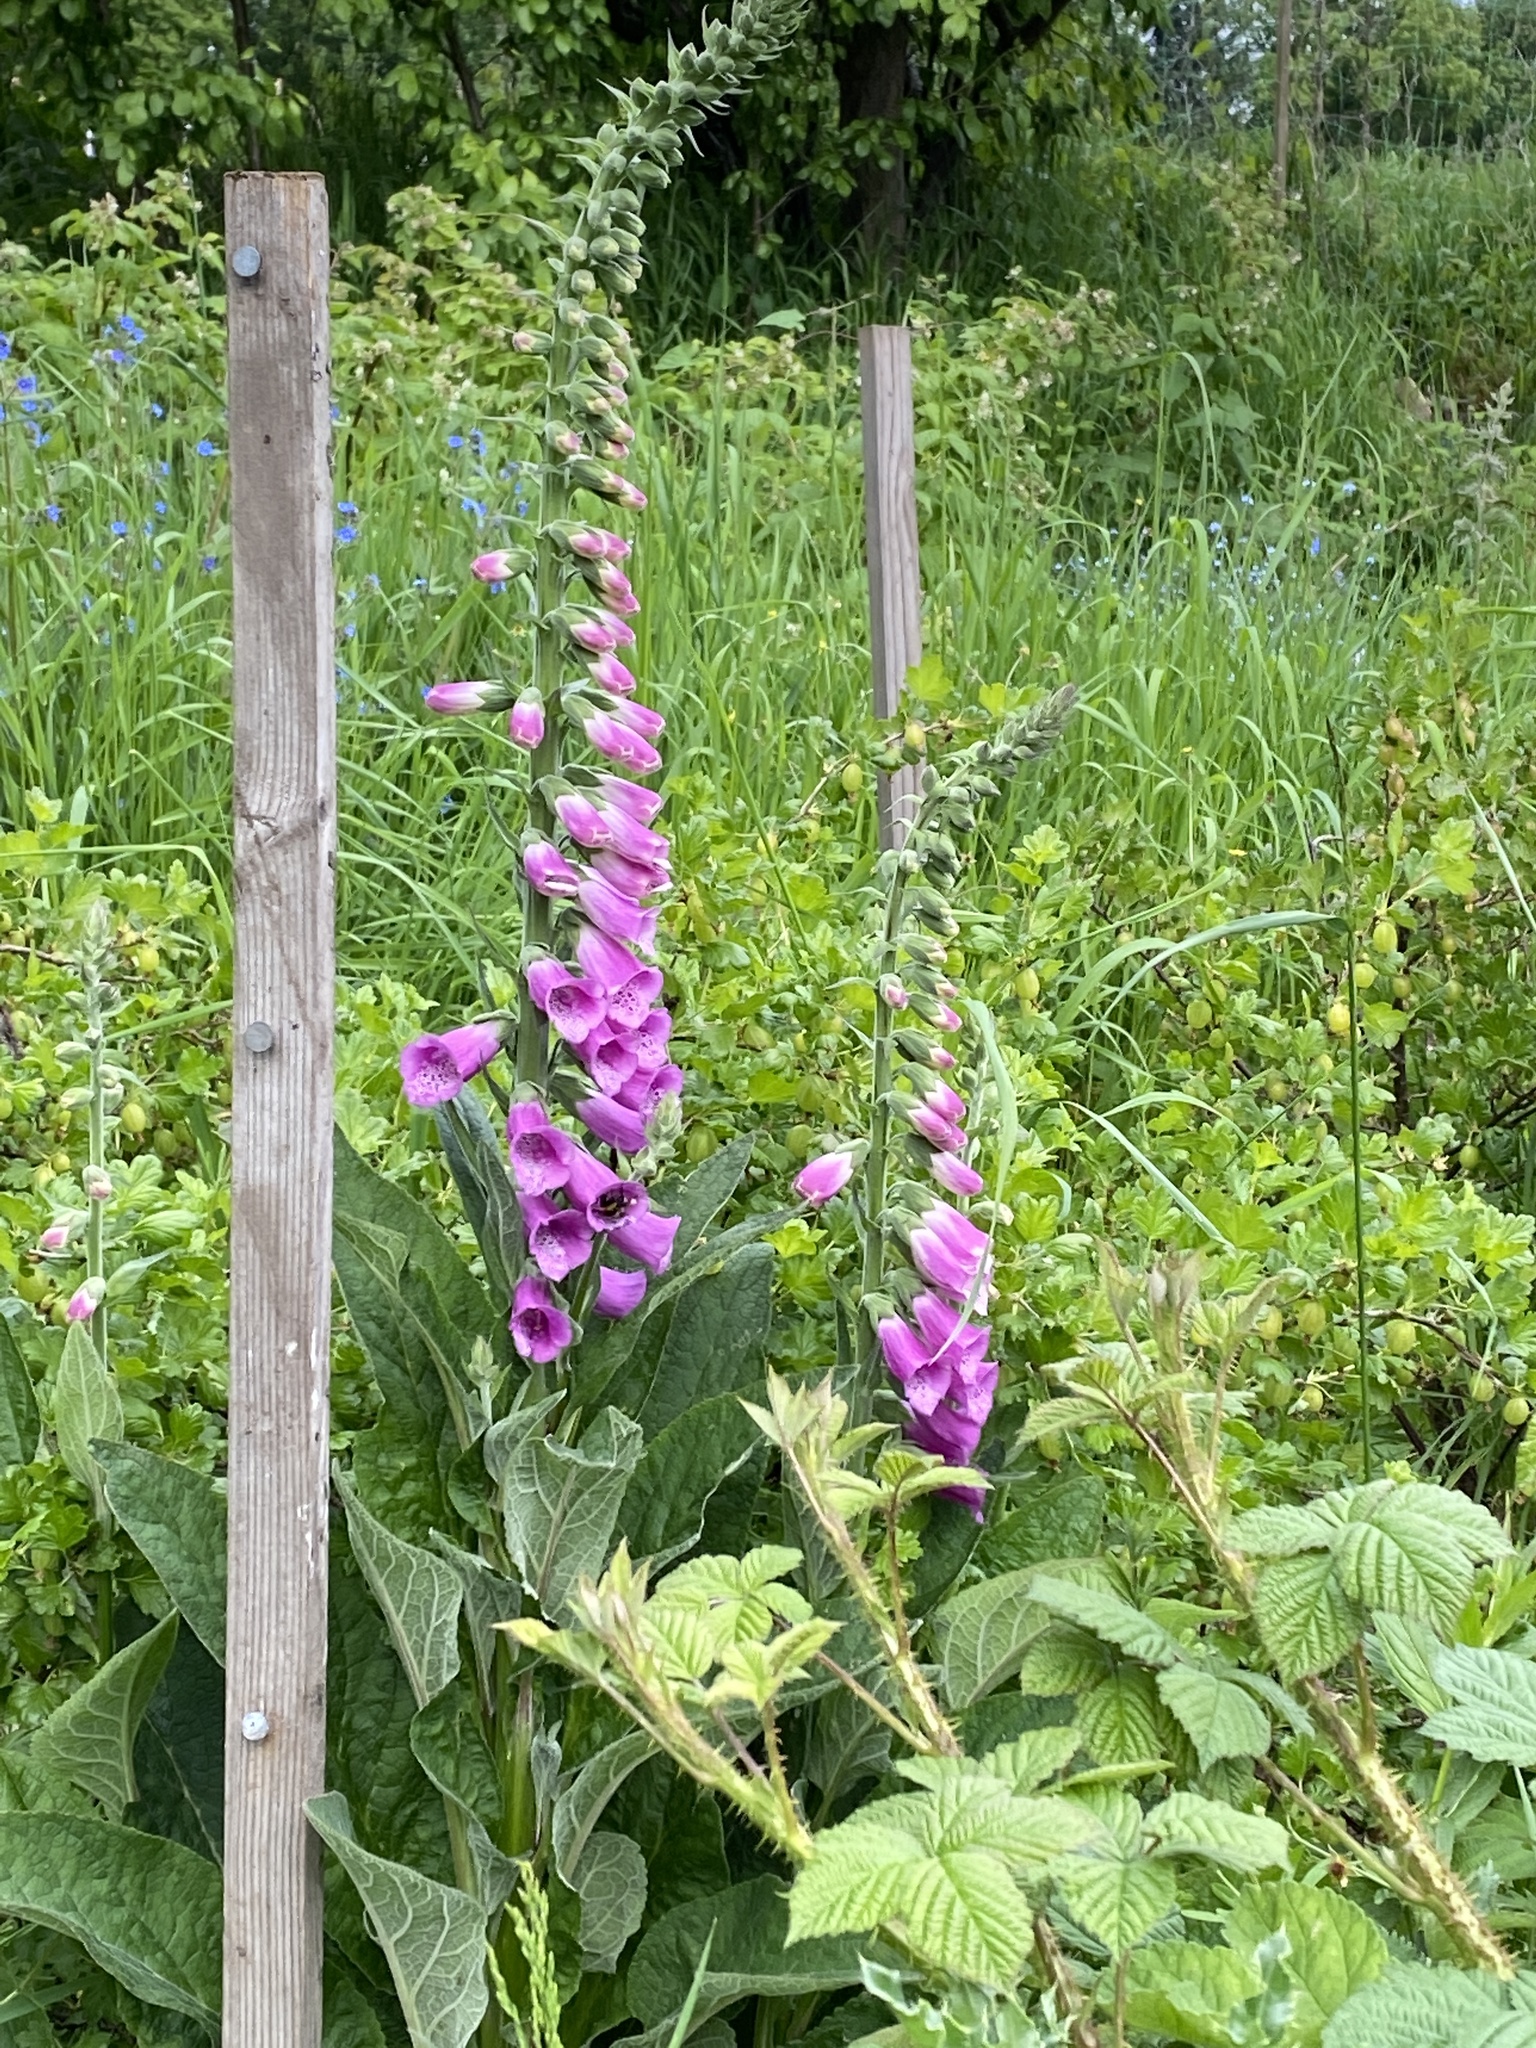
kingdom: Plantae
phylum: Tracheophyta
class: Magnoliopsida
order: Lamiales
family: Plantaginaceae
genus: Digitalis
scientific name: Digitalis purpurea
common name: Foxglove
